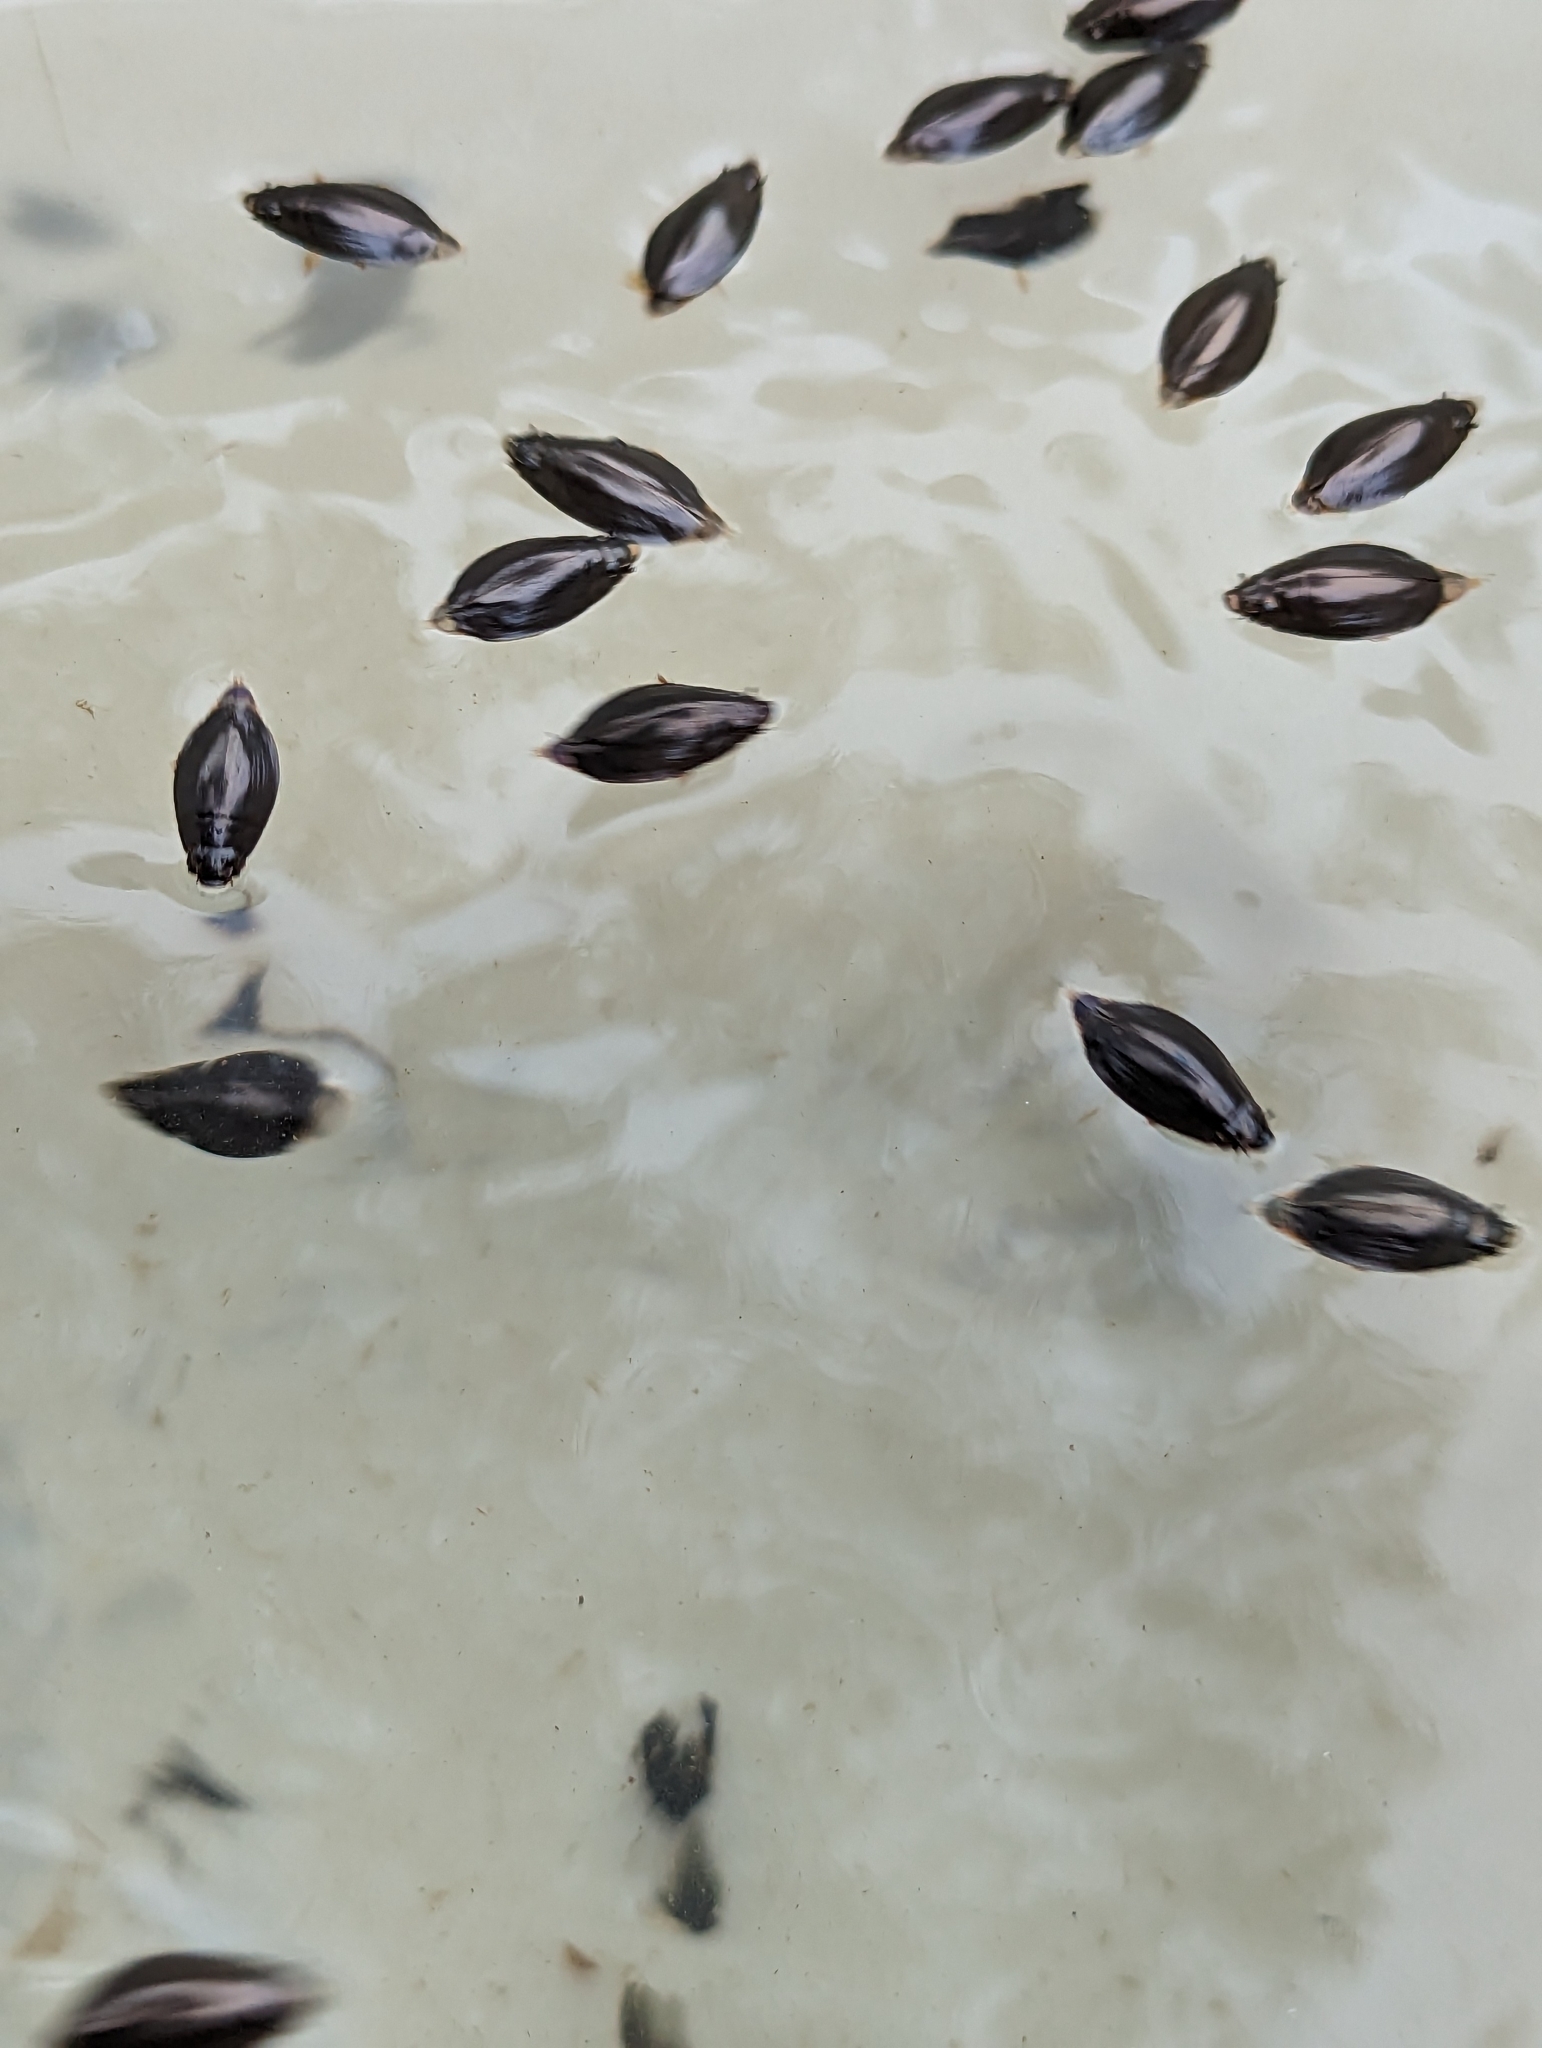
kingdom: Animalia
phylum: Arthropoda
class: Insecta
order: Coleoptera
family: Gyrinidae
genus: Dineutus
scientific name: Dineutus
